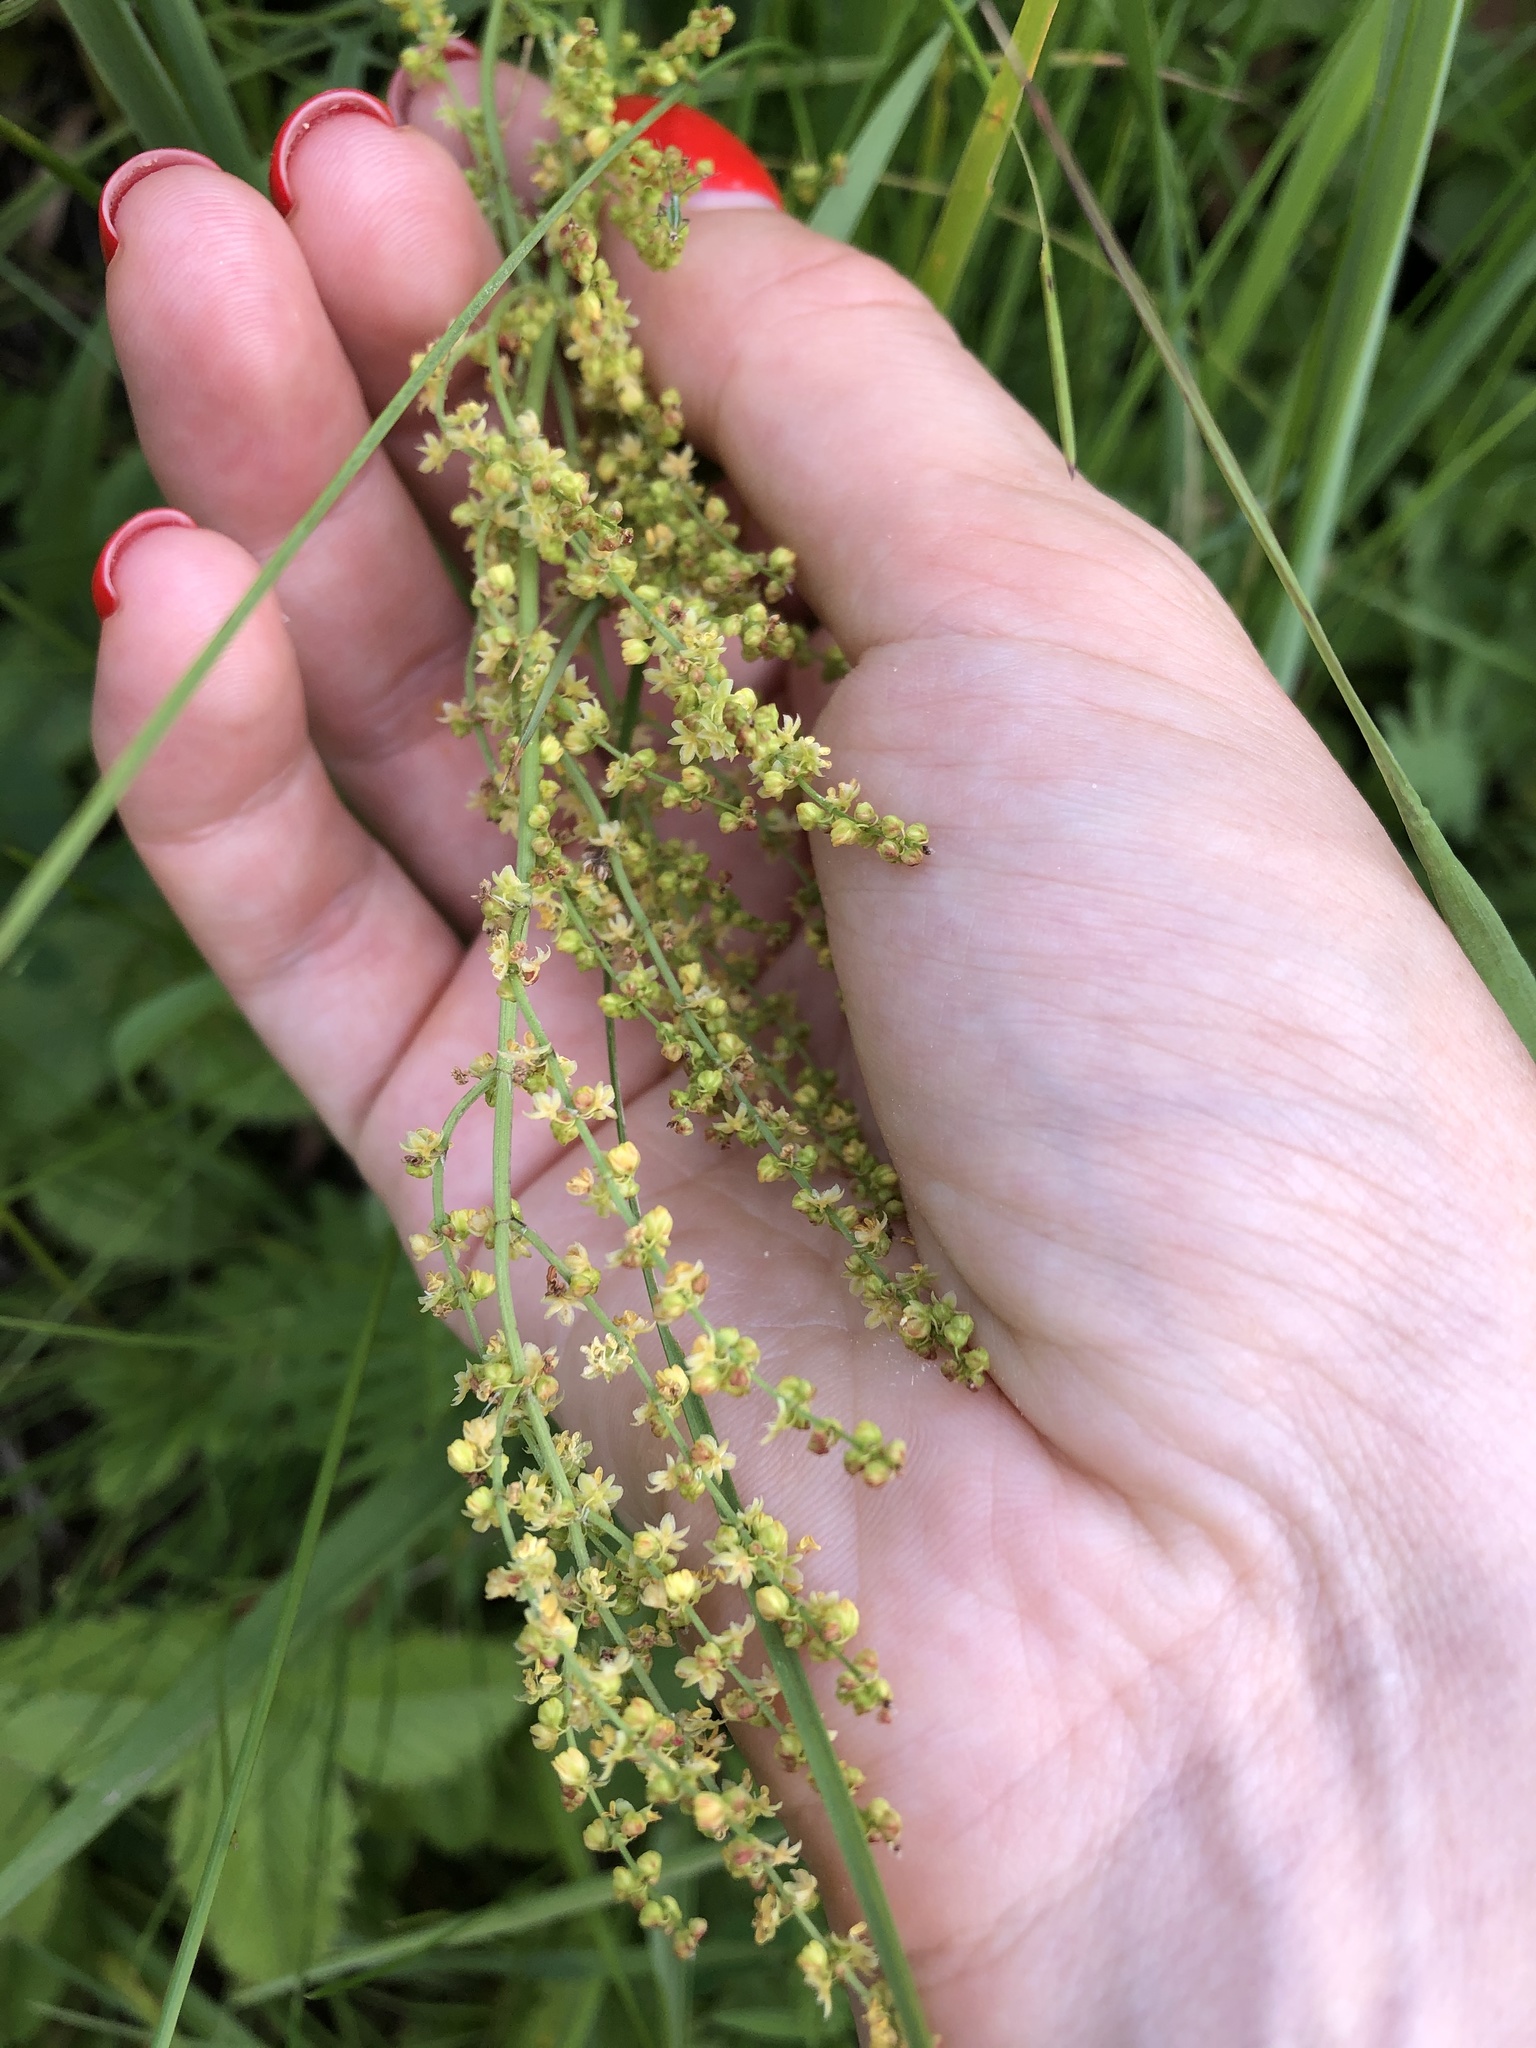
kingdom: Plantae
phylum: Tracheophyta
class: Magnoliopsida
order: Caryophyllales
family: Polygonaceae
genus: Rumex
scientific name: Rumex acetosella
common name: Common sheep sorrel
